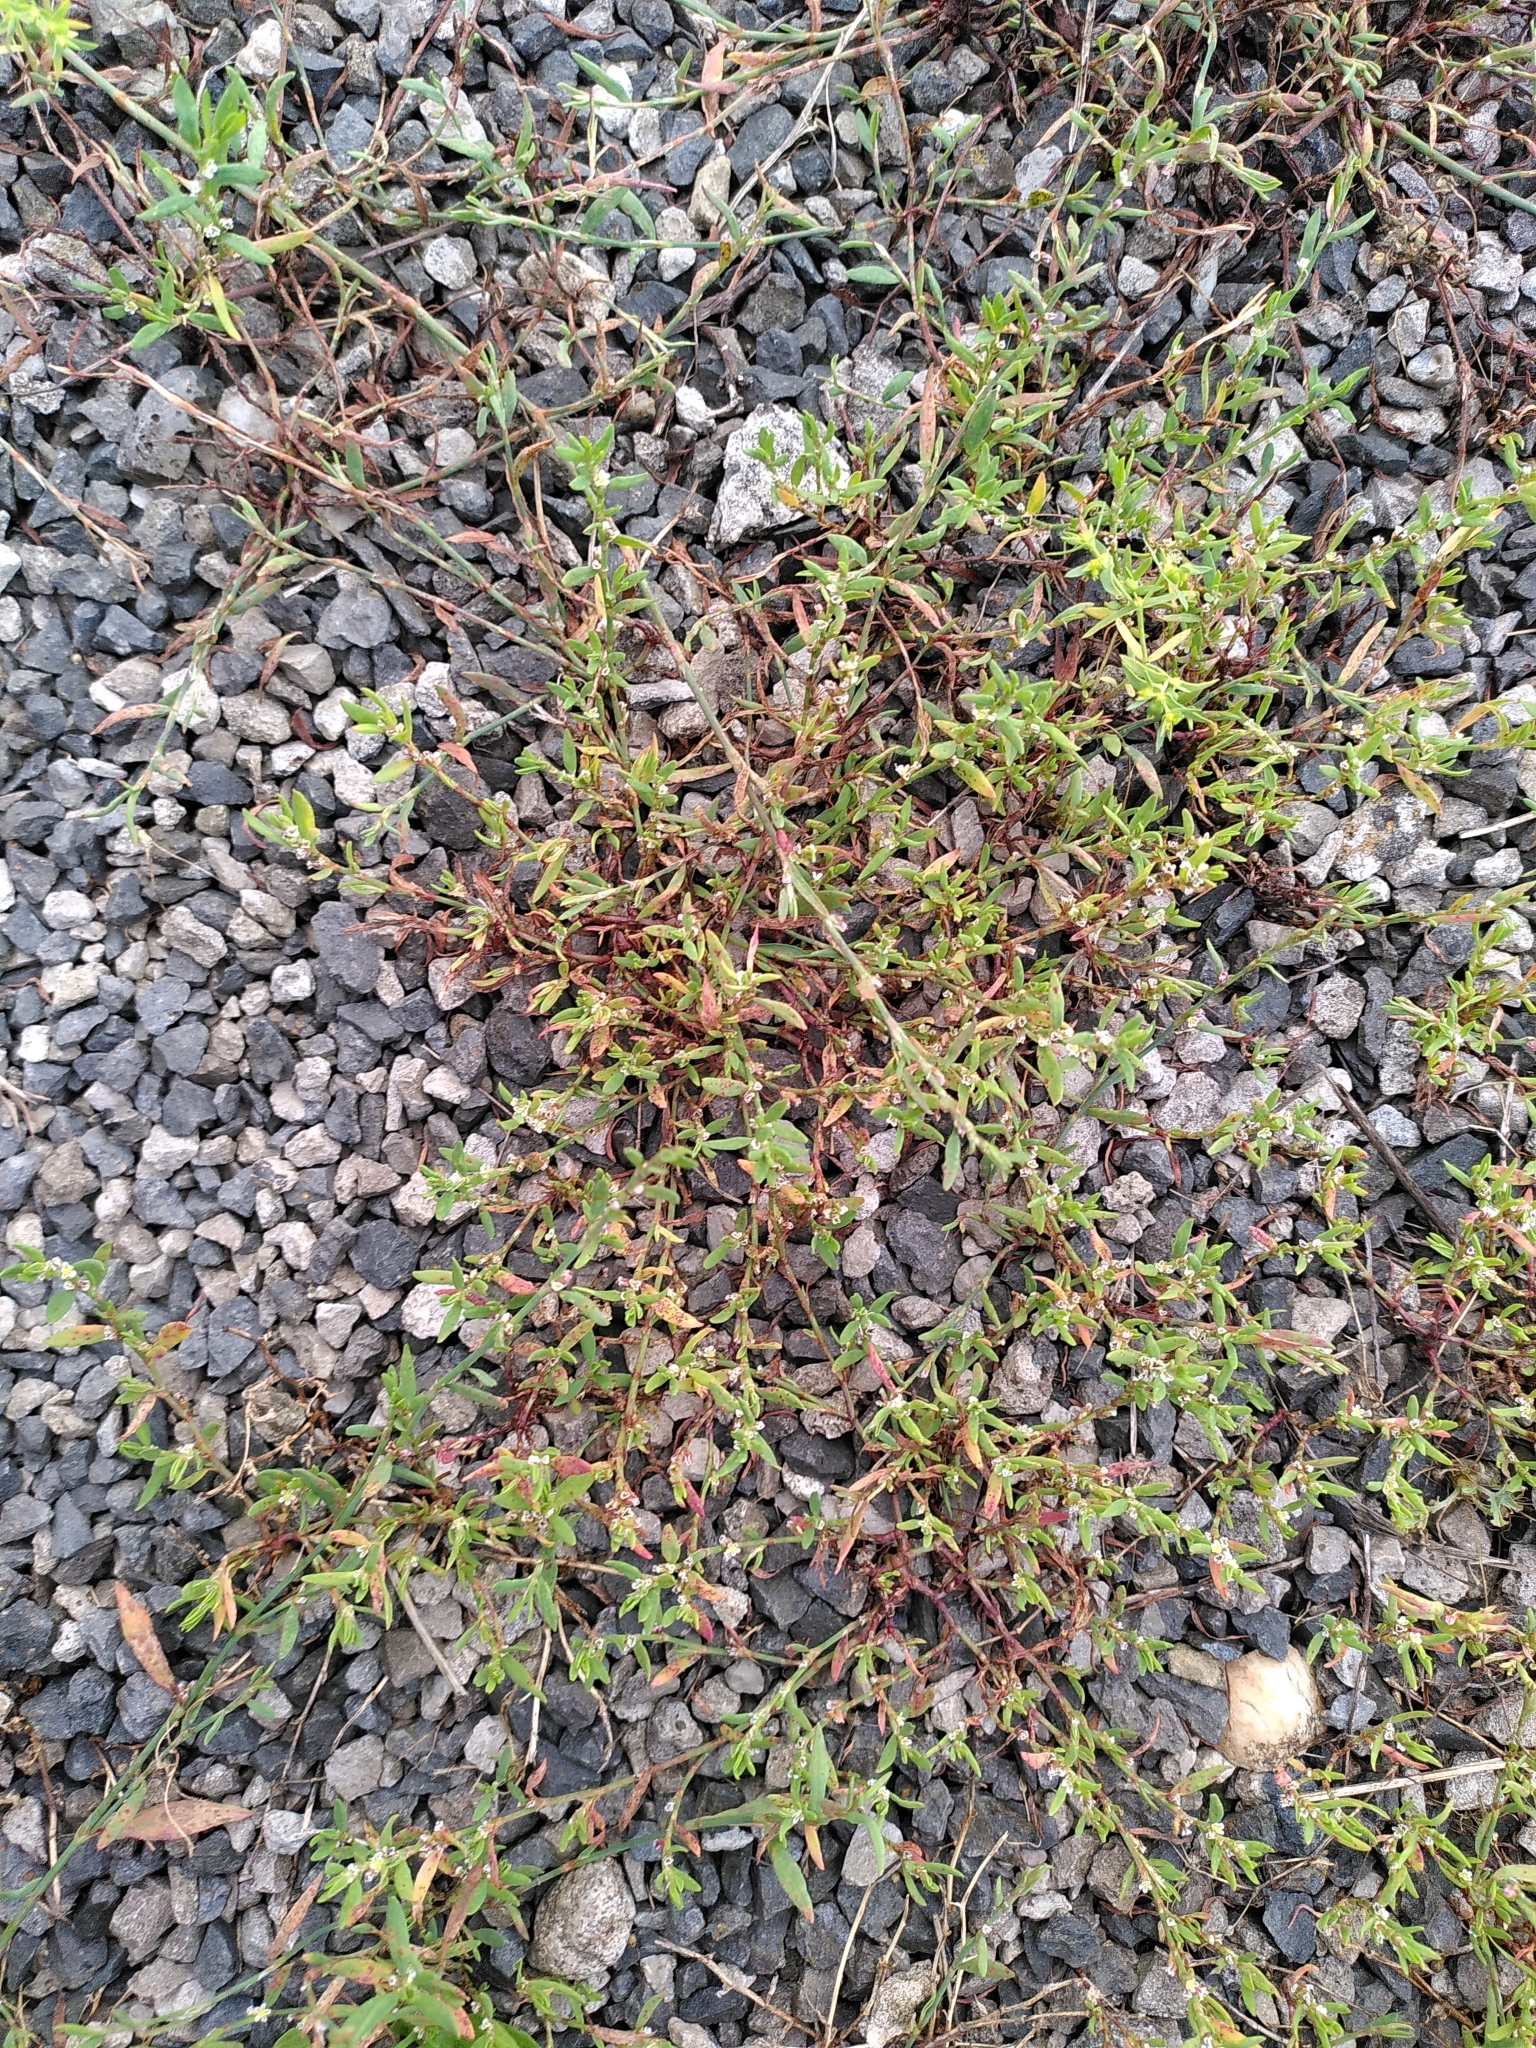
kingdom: Plantae
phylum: Tracheophyta
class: Magnoliopsida
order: Caryophyllales
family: Polygonaceae
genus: Polygonum
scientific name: Polygonum aviculare
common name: Prostrate knotweed
